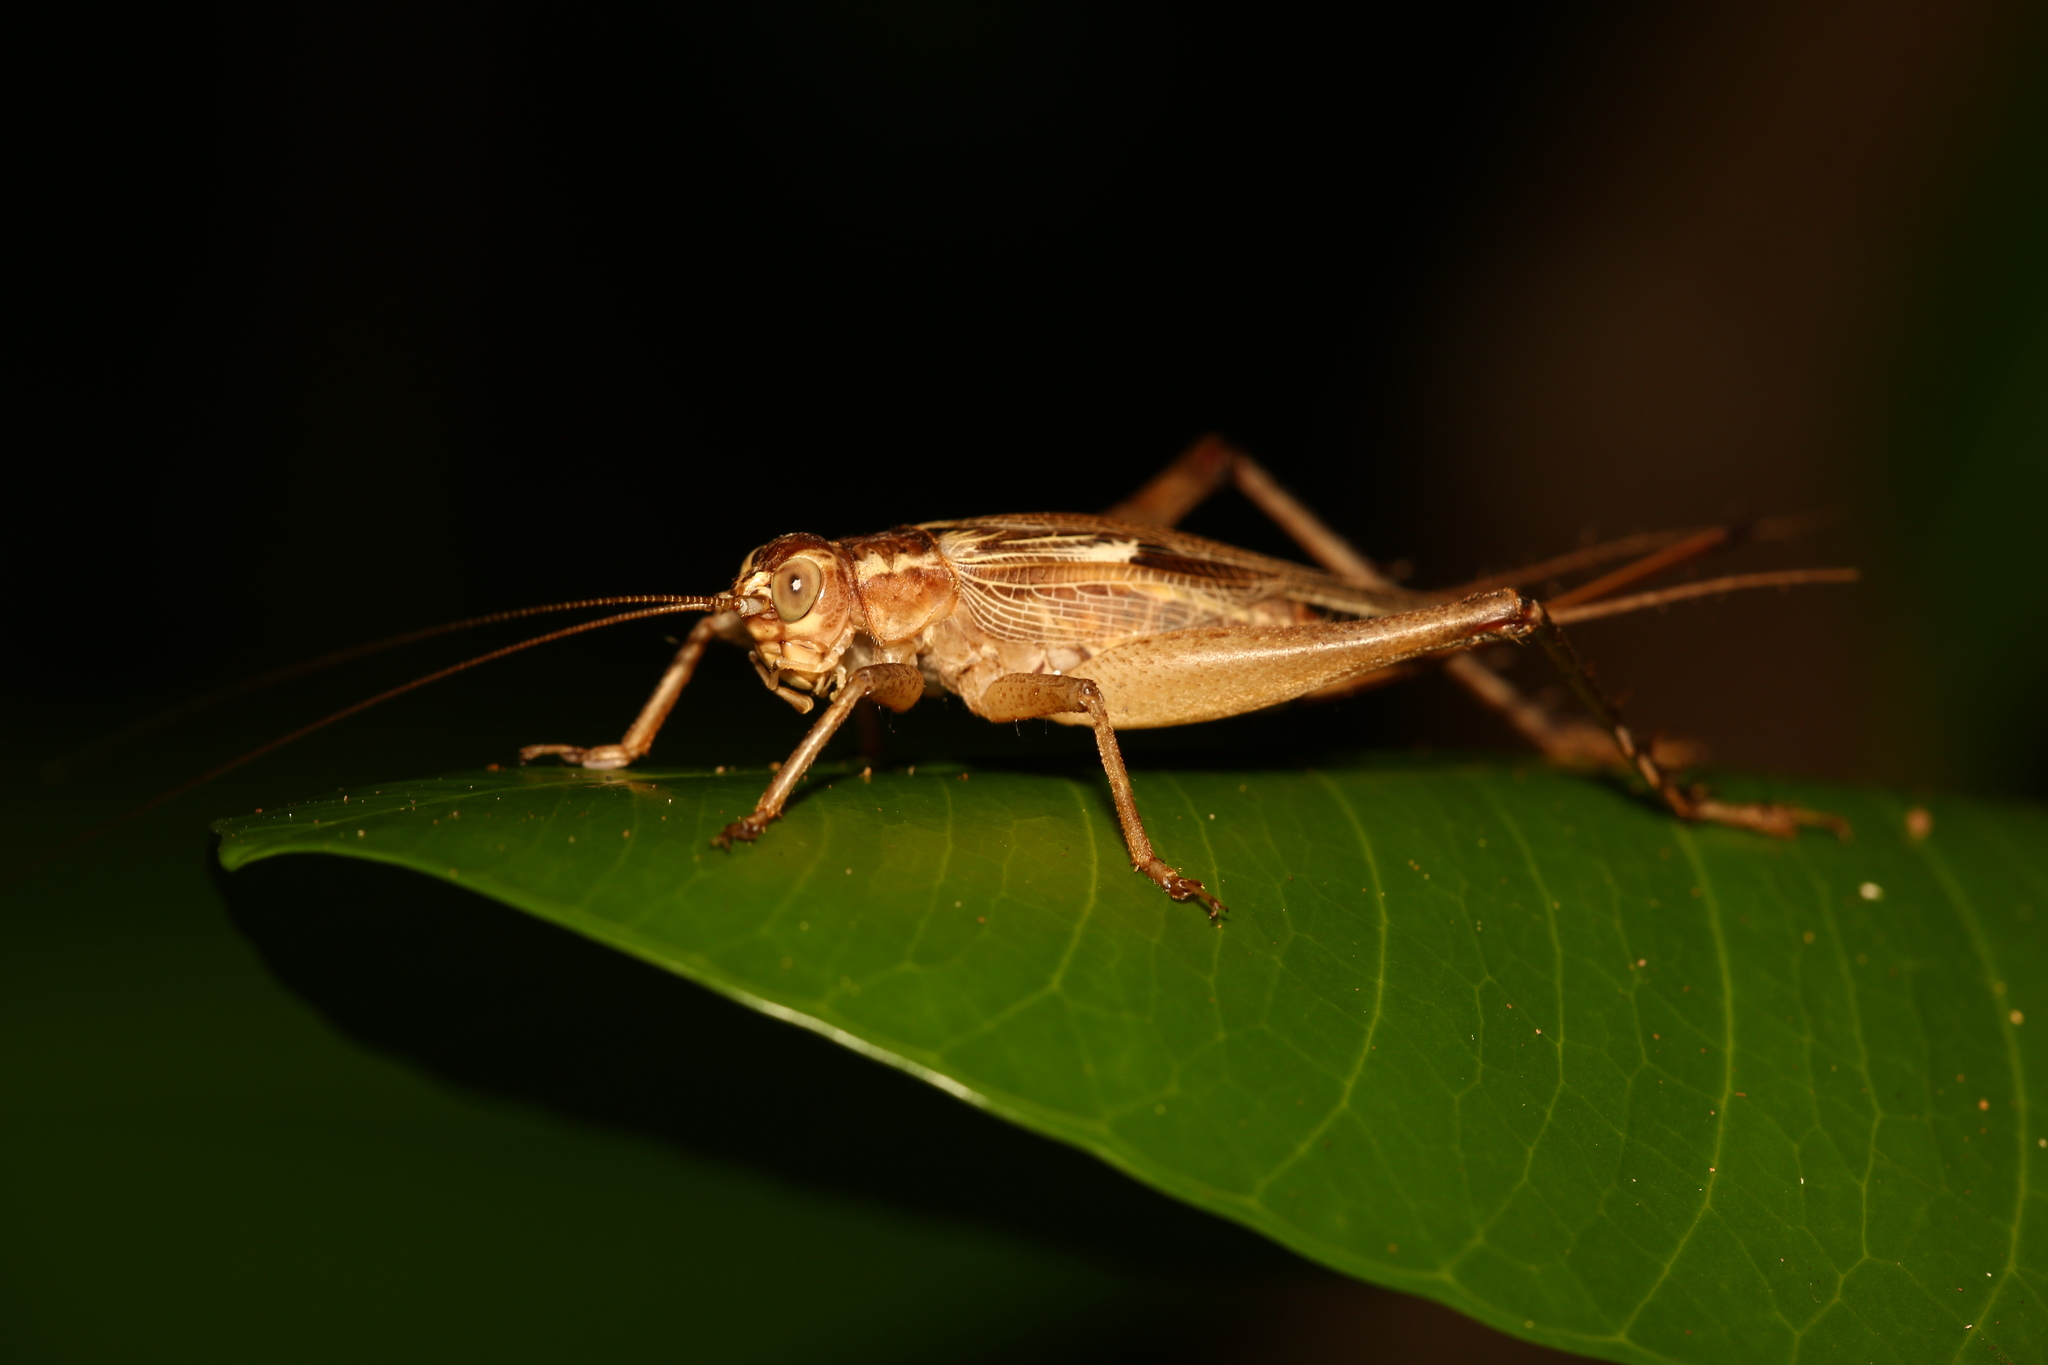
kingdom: Animalia
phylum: Arthropoda
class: Insecta
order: Orthoptera
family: Gryllidae
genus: Cardiodactylus
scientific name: Cardiodactylus novaeguineae
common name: Sad cricket
